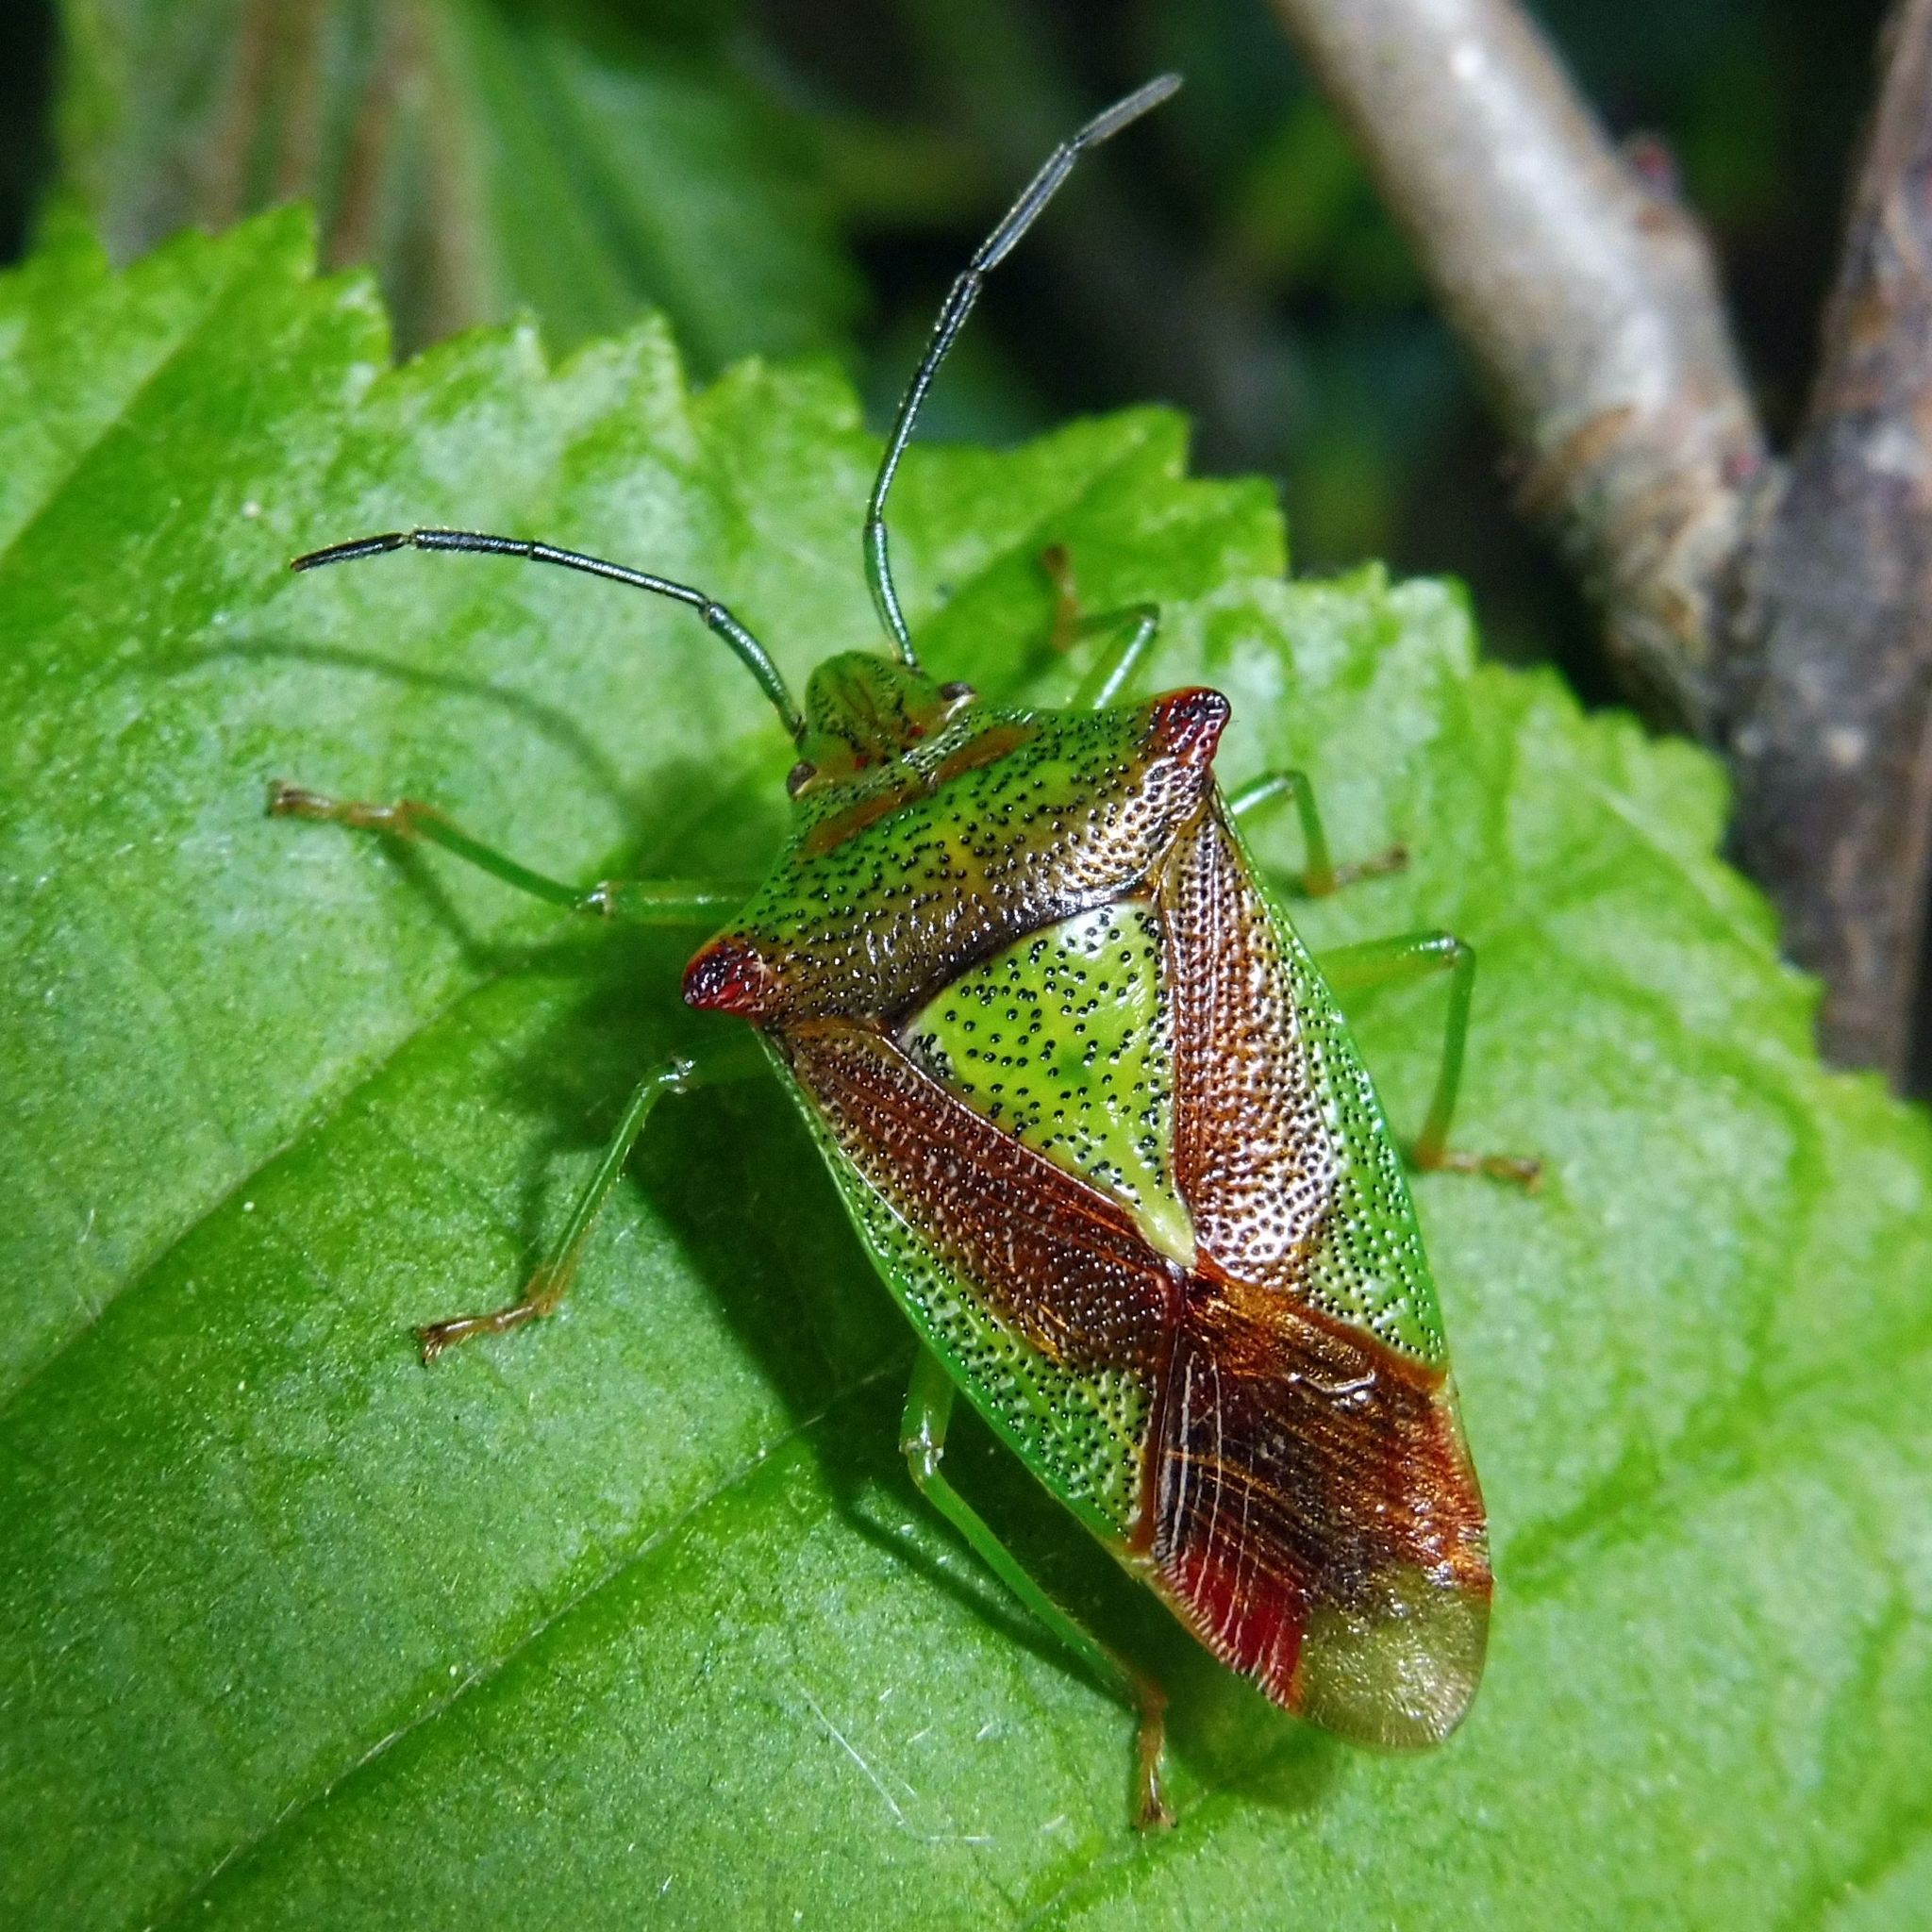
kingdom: Animalia
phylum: Arthropoda
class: Insecta
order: Hemiptera
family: Acanthosomatidae
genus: Acanthosoma
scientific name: Acanthosoma haemorrhoidale
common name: Hawthorn shieldbug
